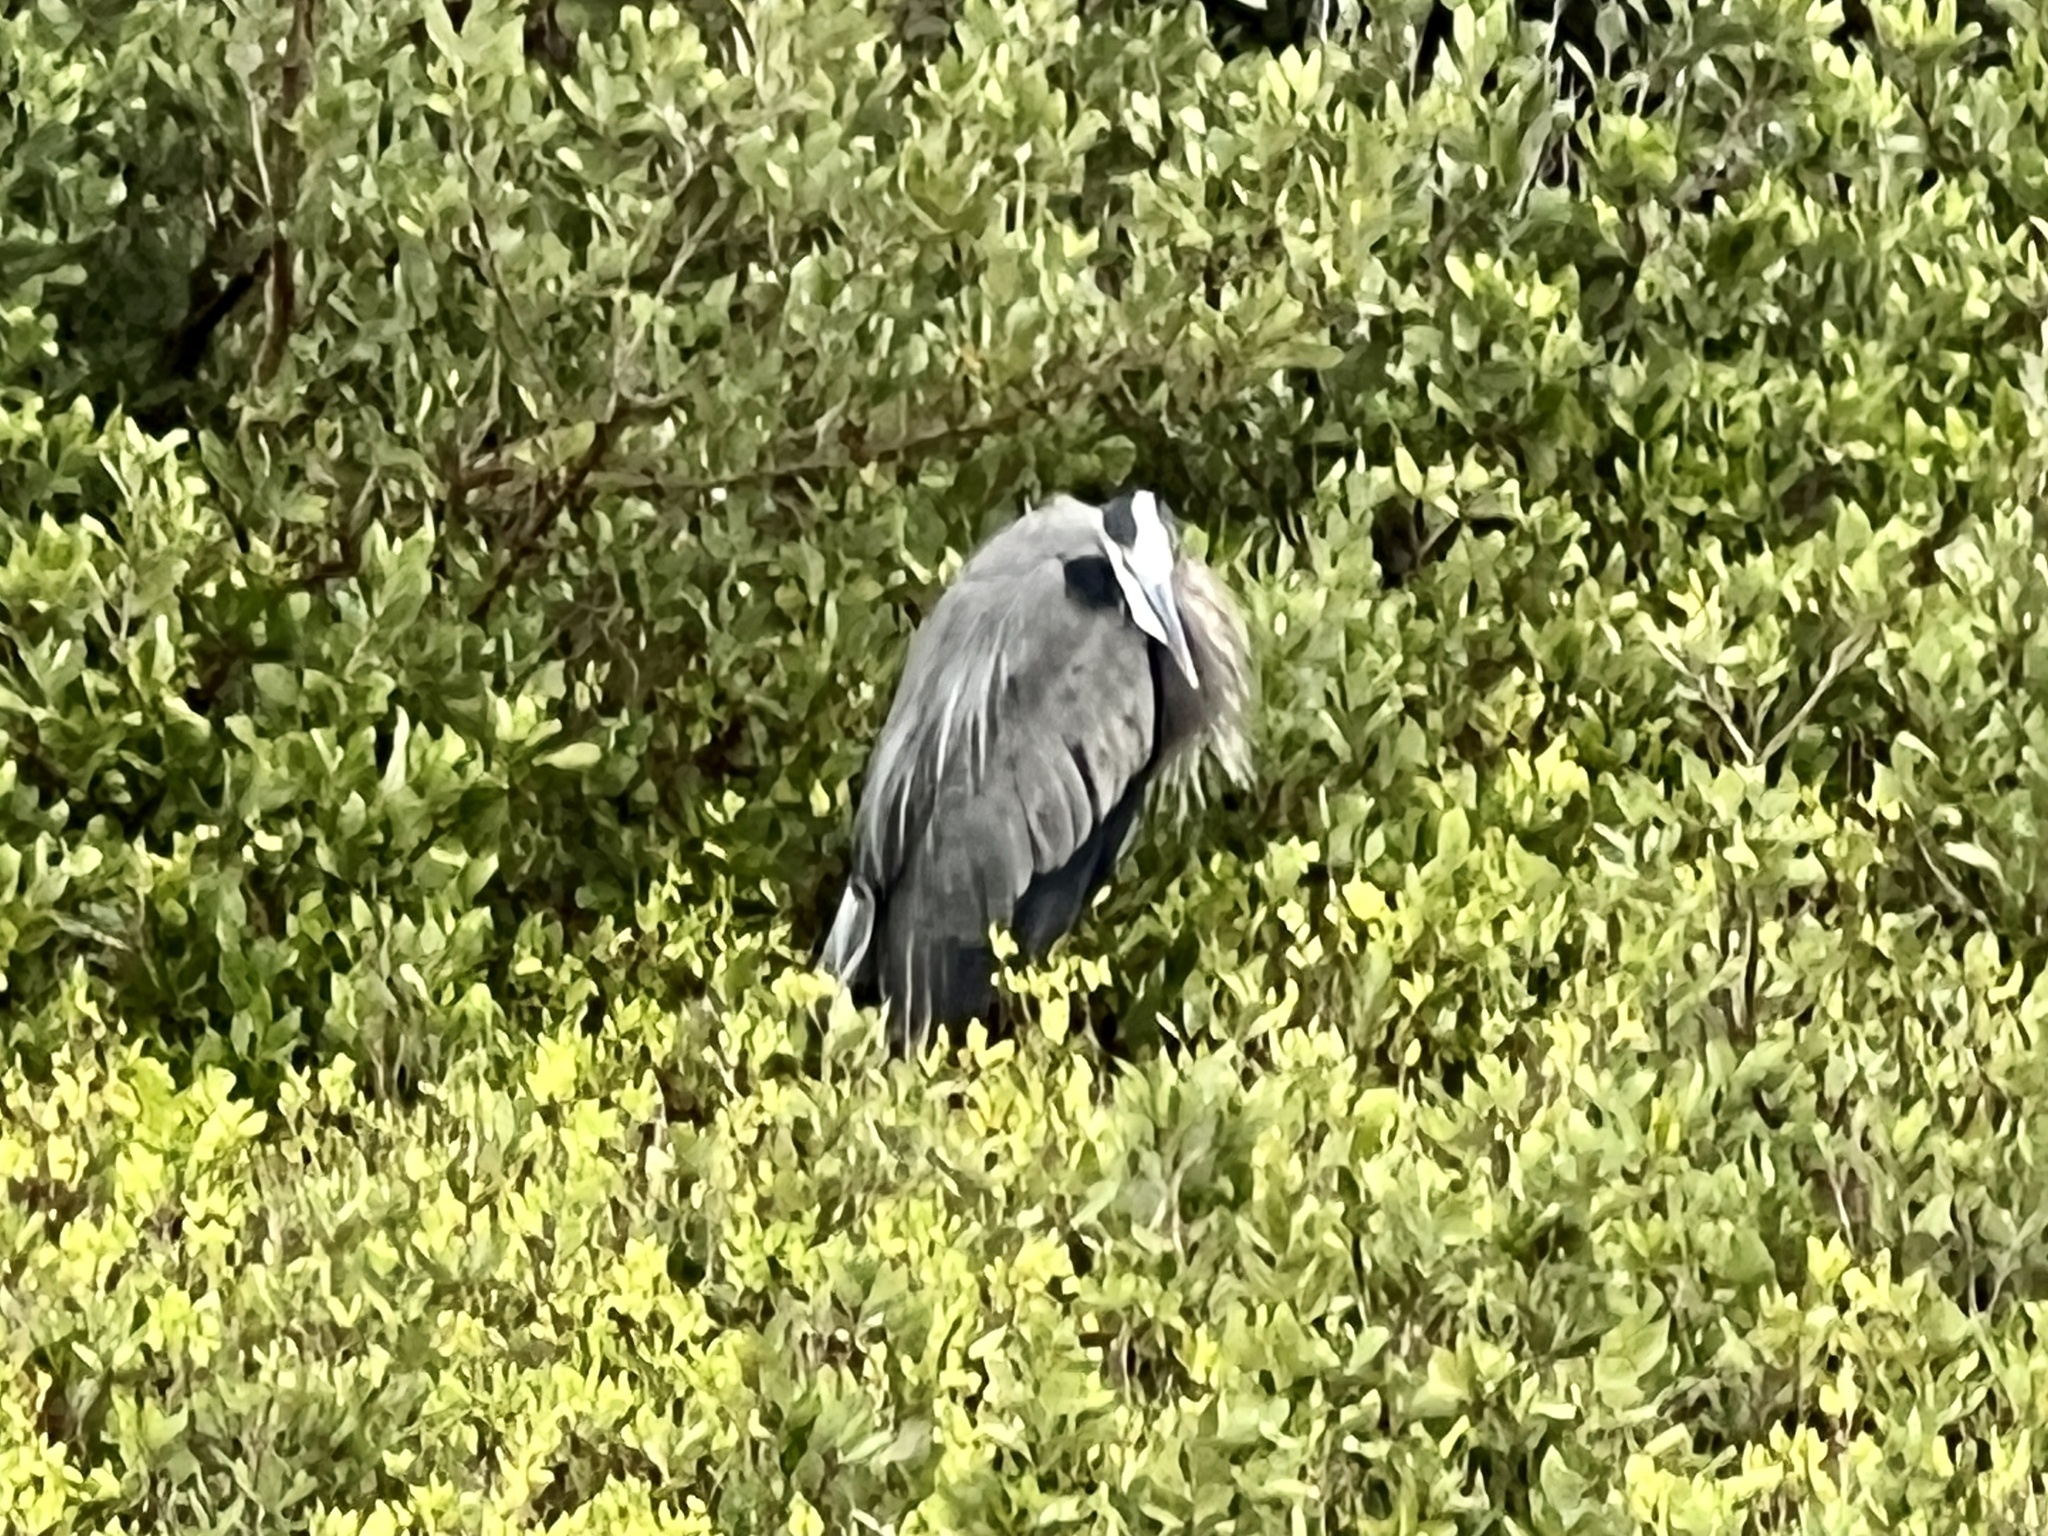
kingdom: Animalia
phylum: Chordata
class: Aves
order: Pelecaniformes
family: Ardeidae
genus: Ardea
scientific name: Ardea herodias
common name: Great blue heron
